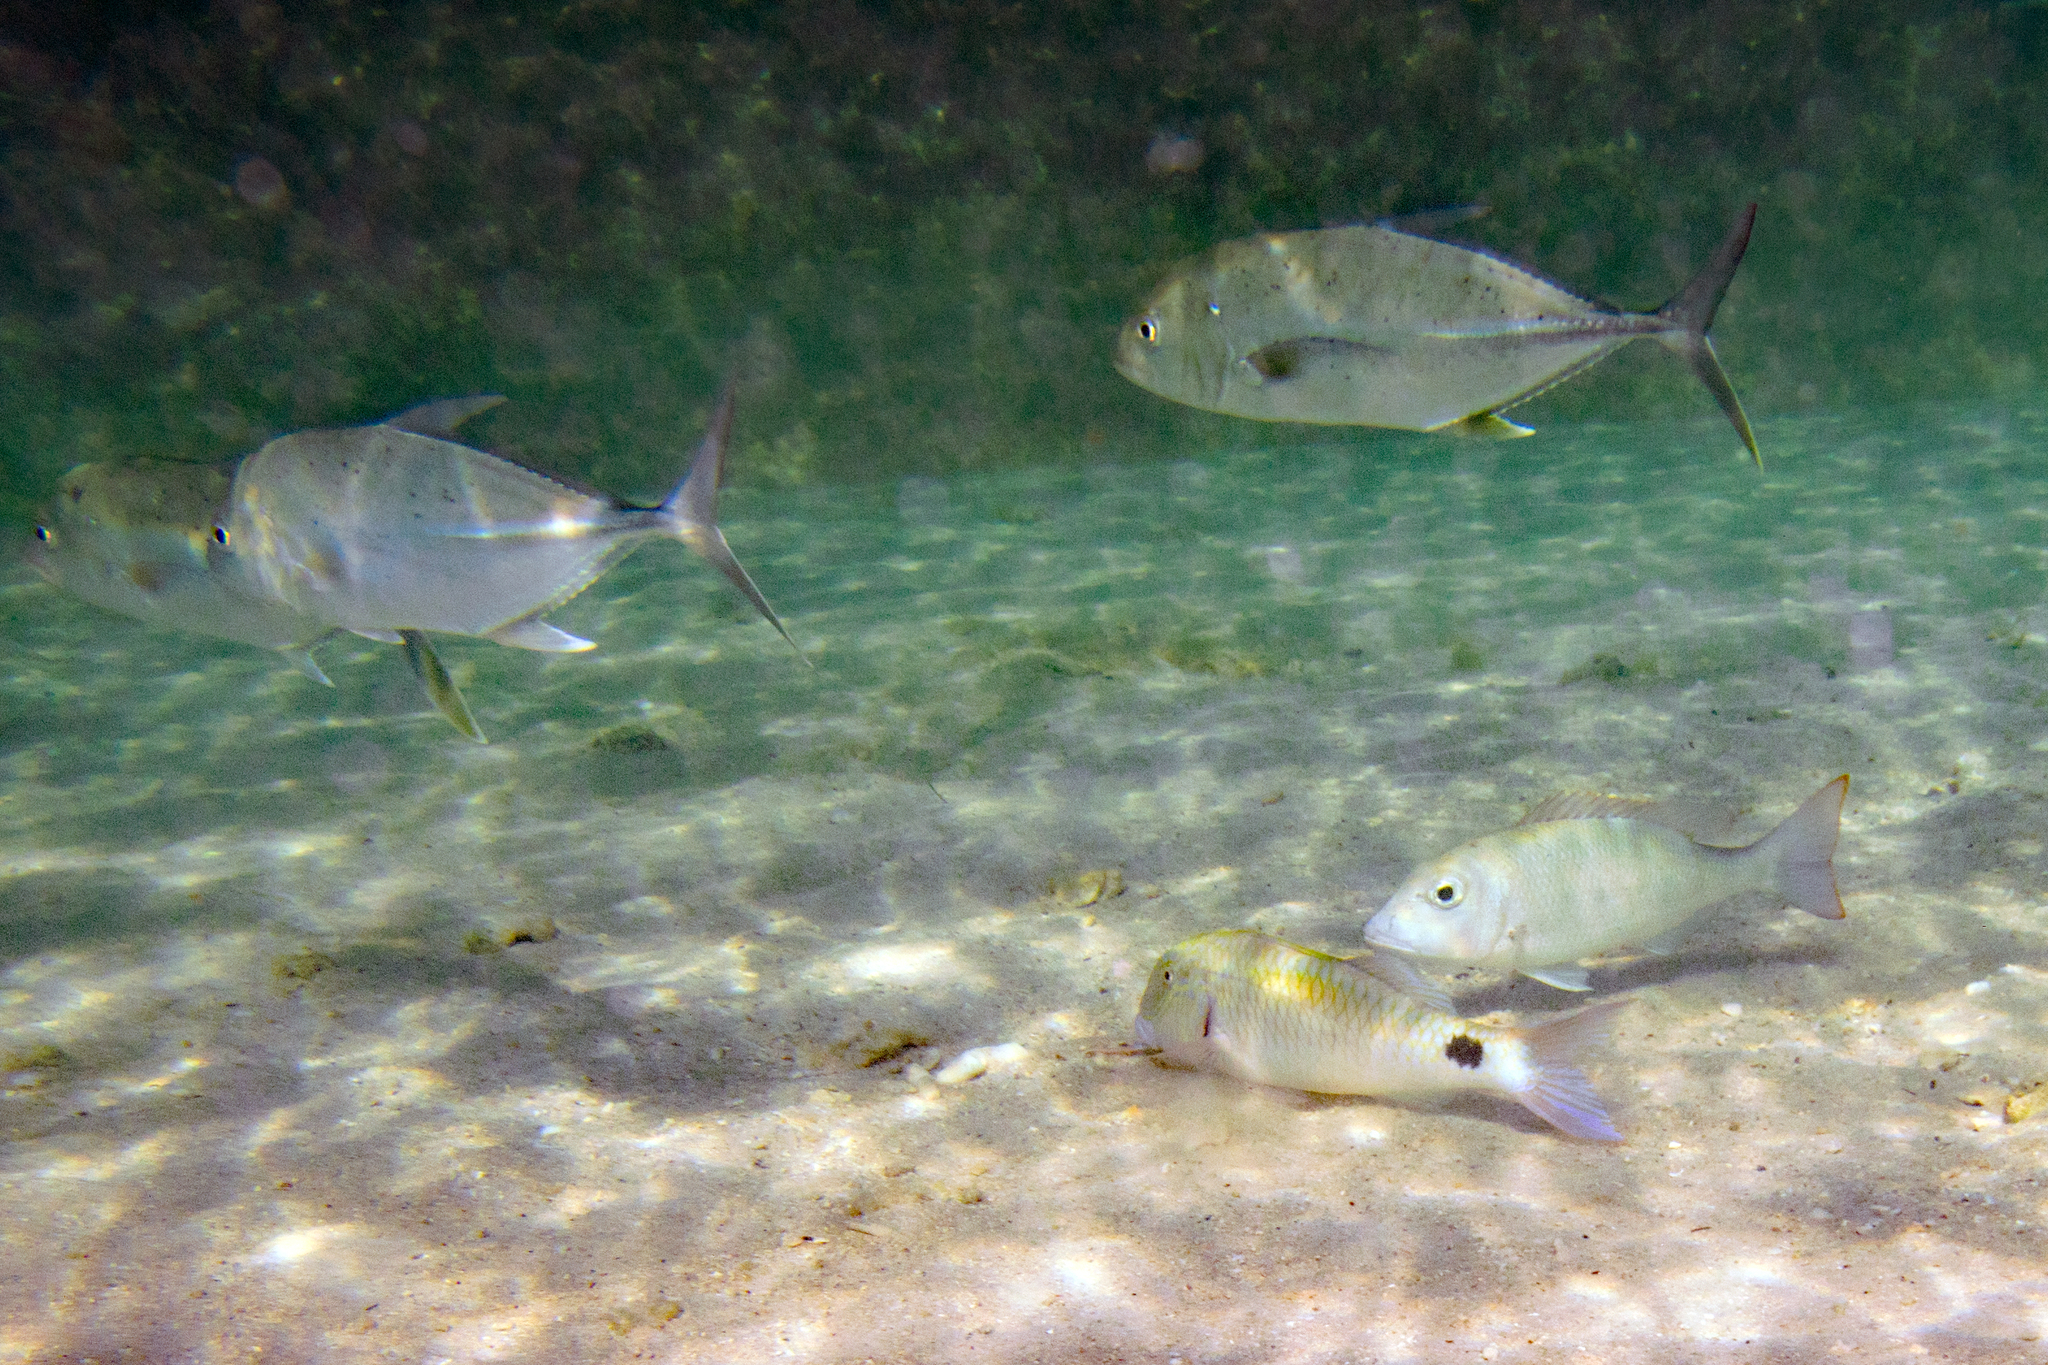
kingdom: Animalia
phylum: Chordata
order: Perciformes
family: Mullidae
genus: Parupeneus
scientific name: Parupeneus indicus
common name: Indian goatfish
